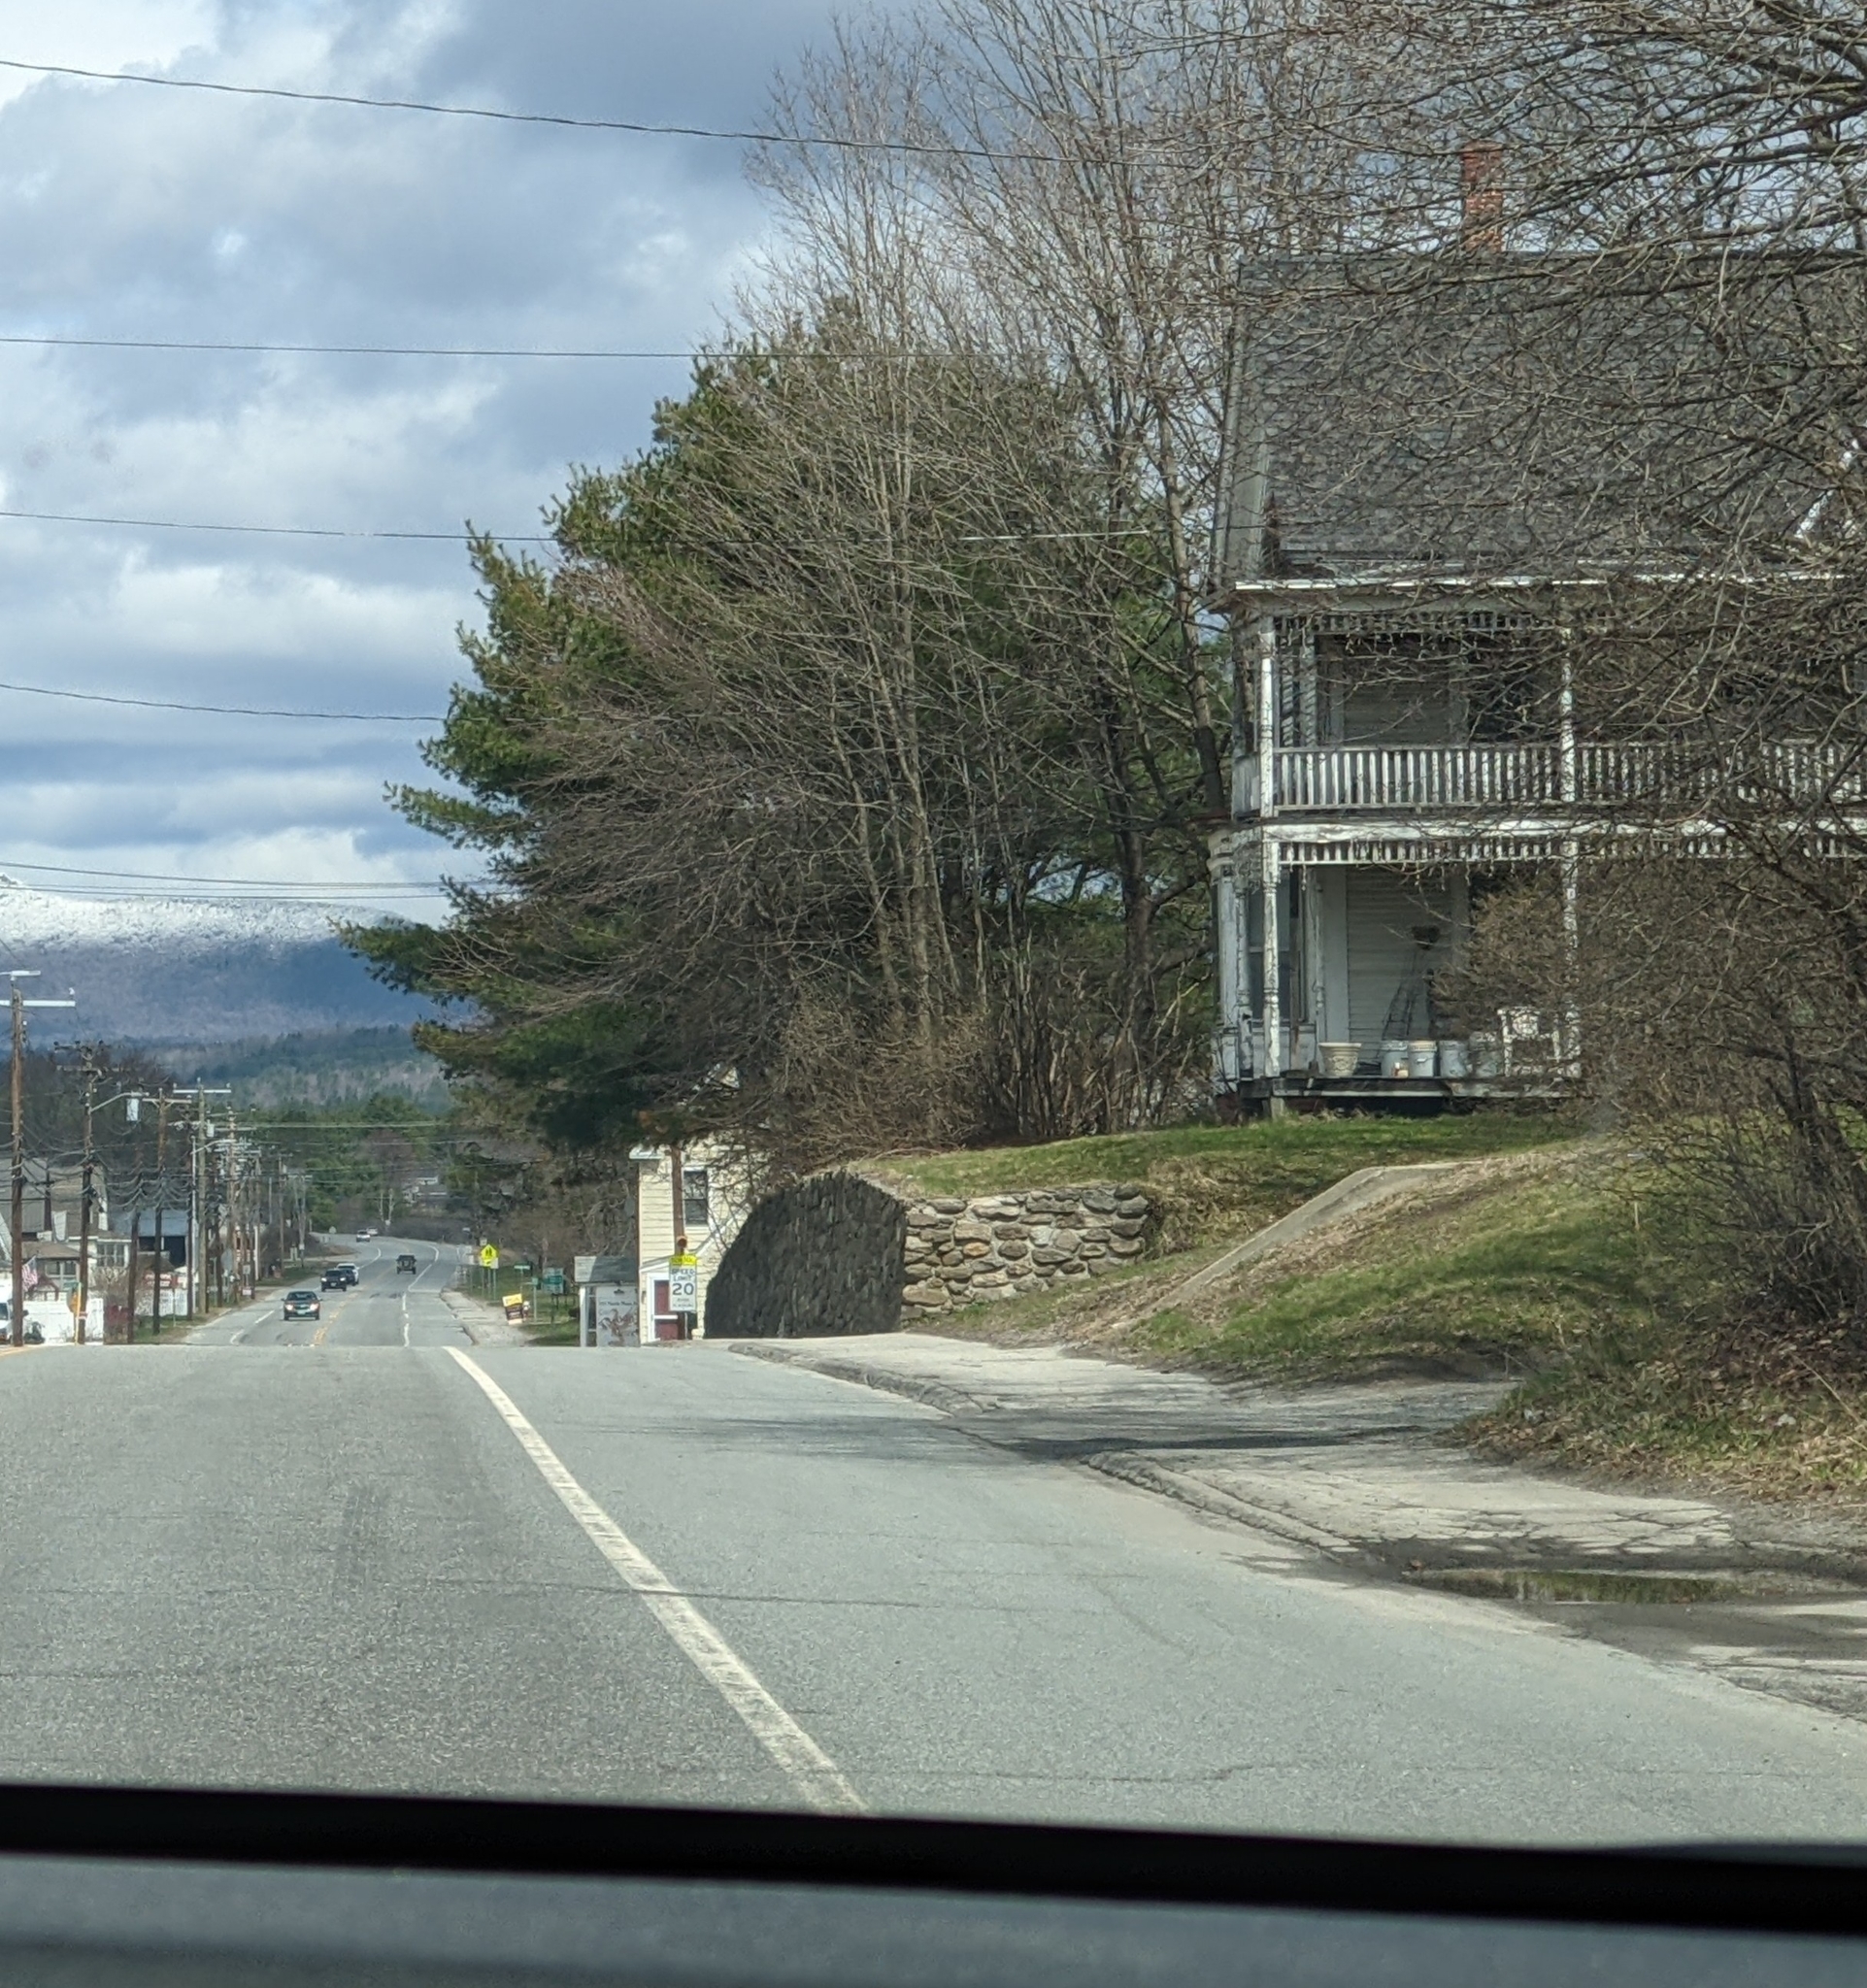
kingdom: Plantae
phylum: Tracheophyta
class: Pinopsida
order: Pinales
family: Pinaceae
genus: Pinus
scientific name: Pinus strobus
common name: Weymouth pine
